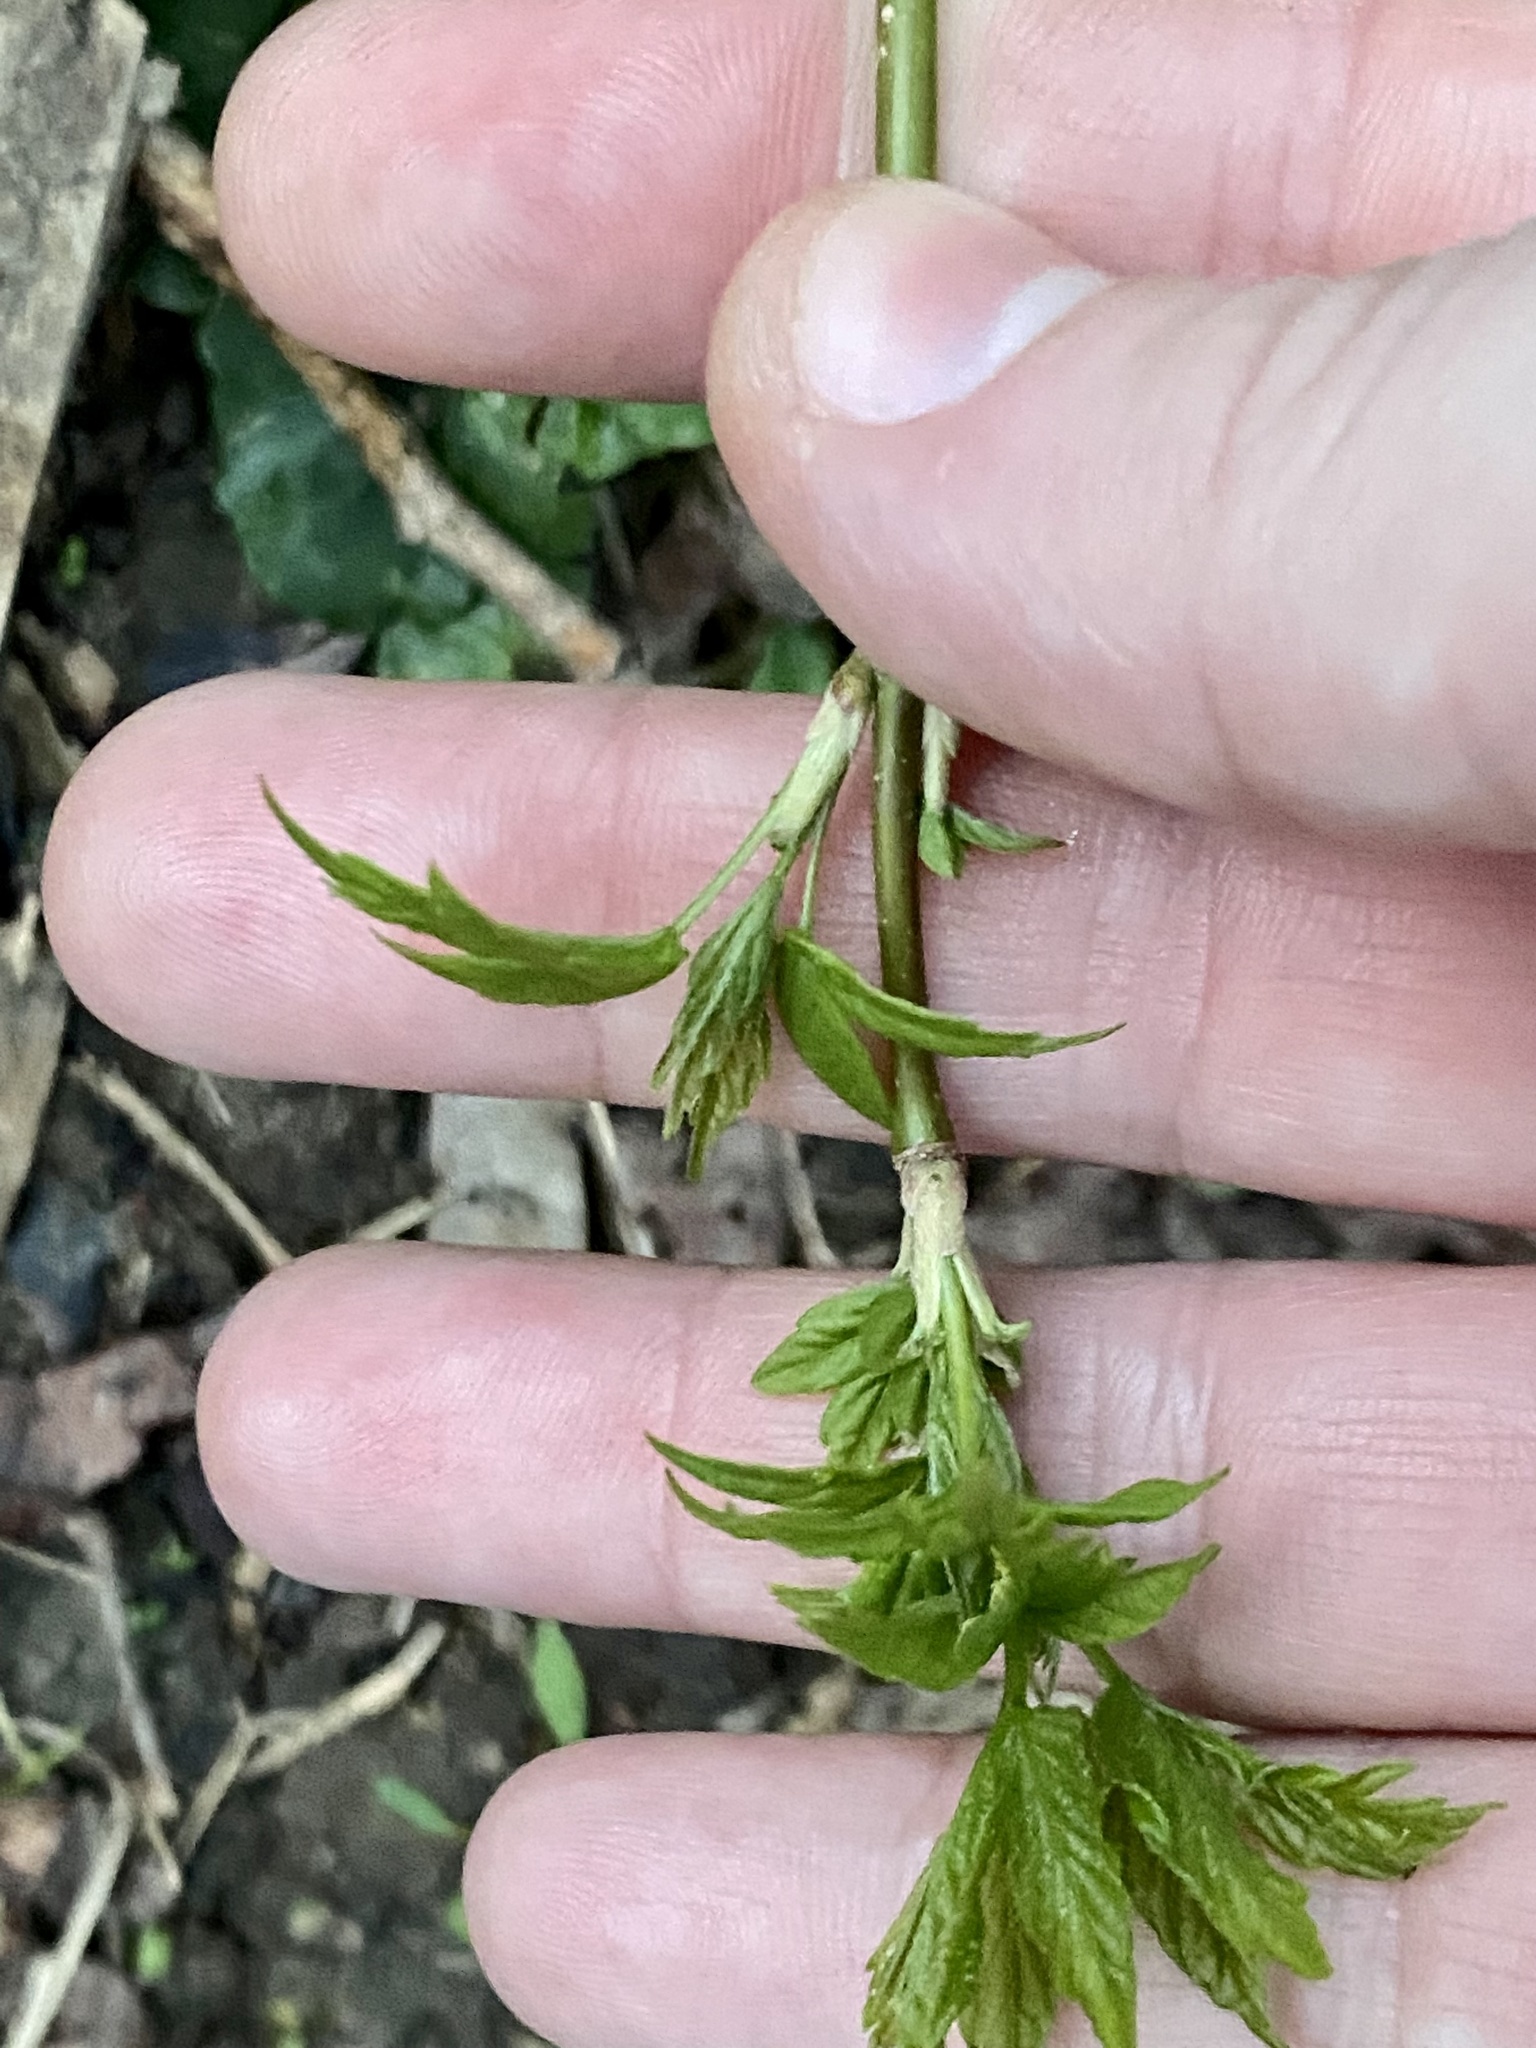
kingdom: Plantae
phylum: Tracheophyta
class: Magnoliopsida
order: Sapindales
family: Sapindaceae
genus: Acer
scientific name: Acer negundo
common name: Ashleaf maple
